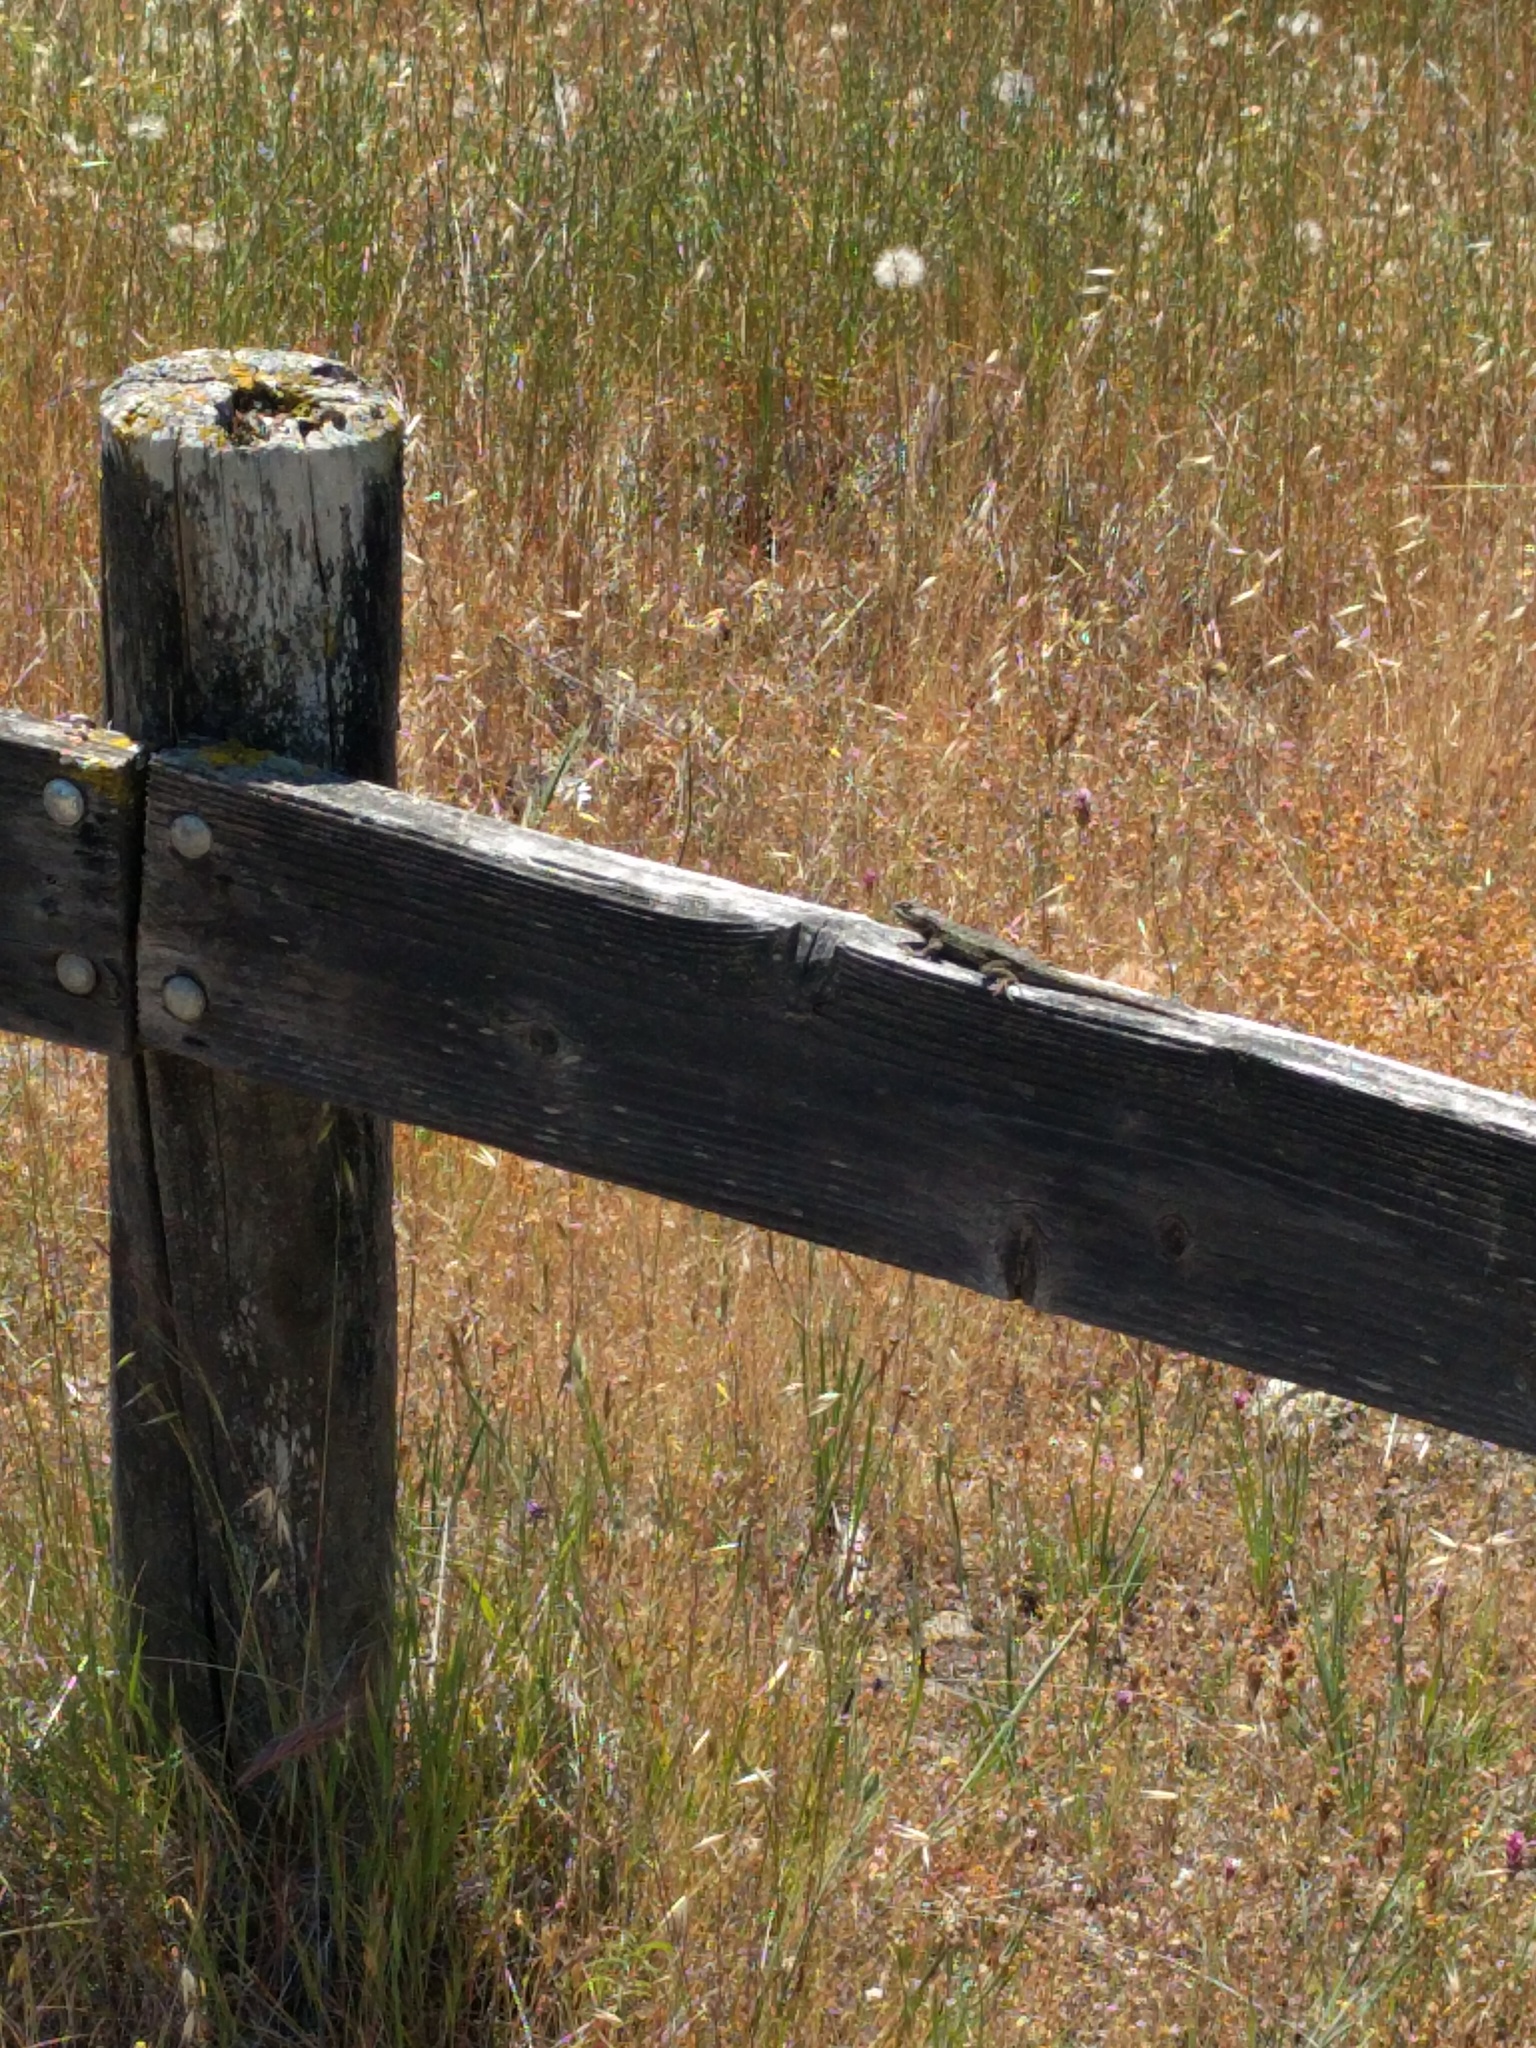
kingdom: Animalia
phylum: Chordata
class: Squamata
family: Phrynosomatidae
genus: Sceloporus
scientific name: Sceloporus occidentalis
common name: Western fence lizard
